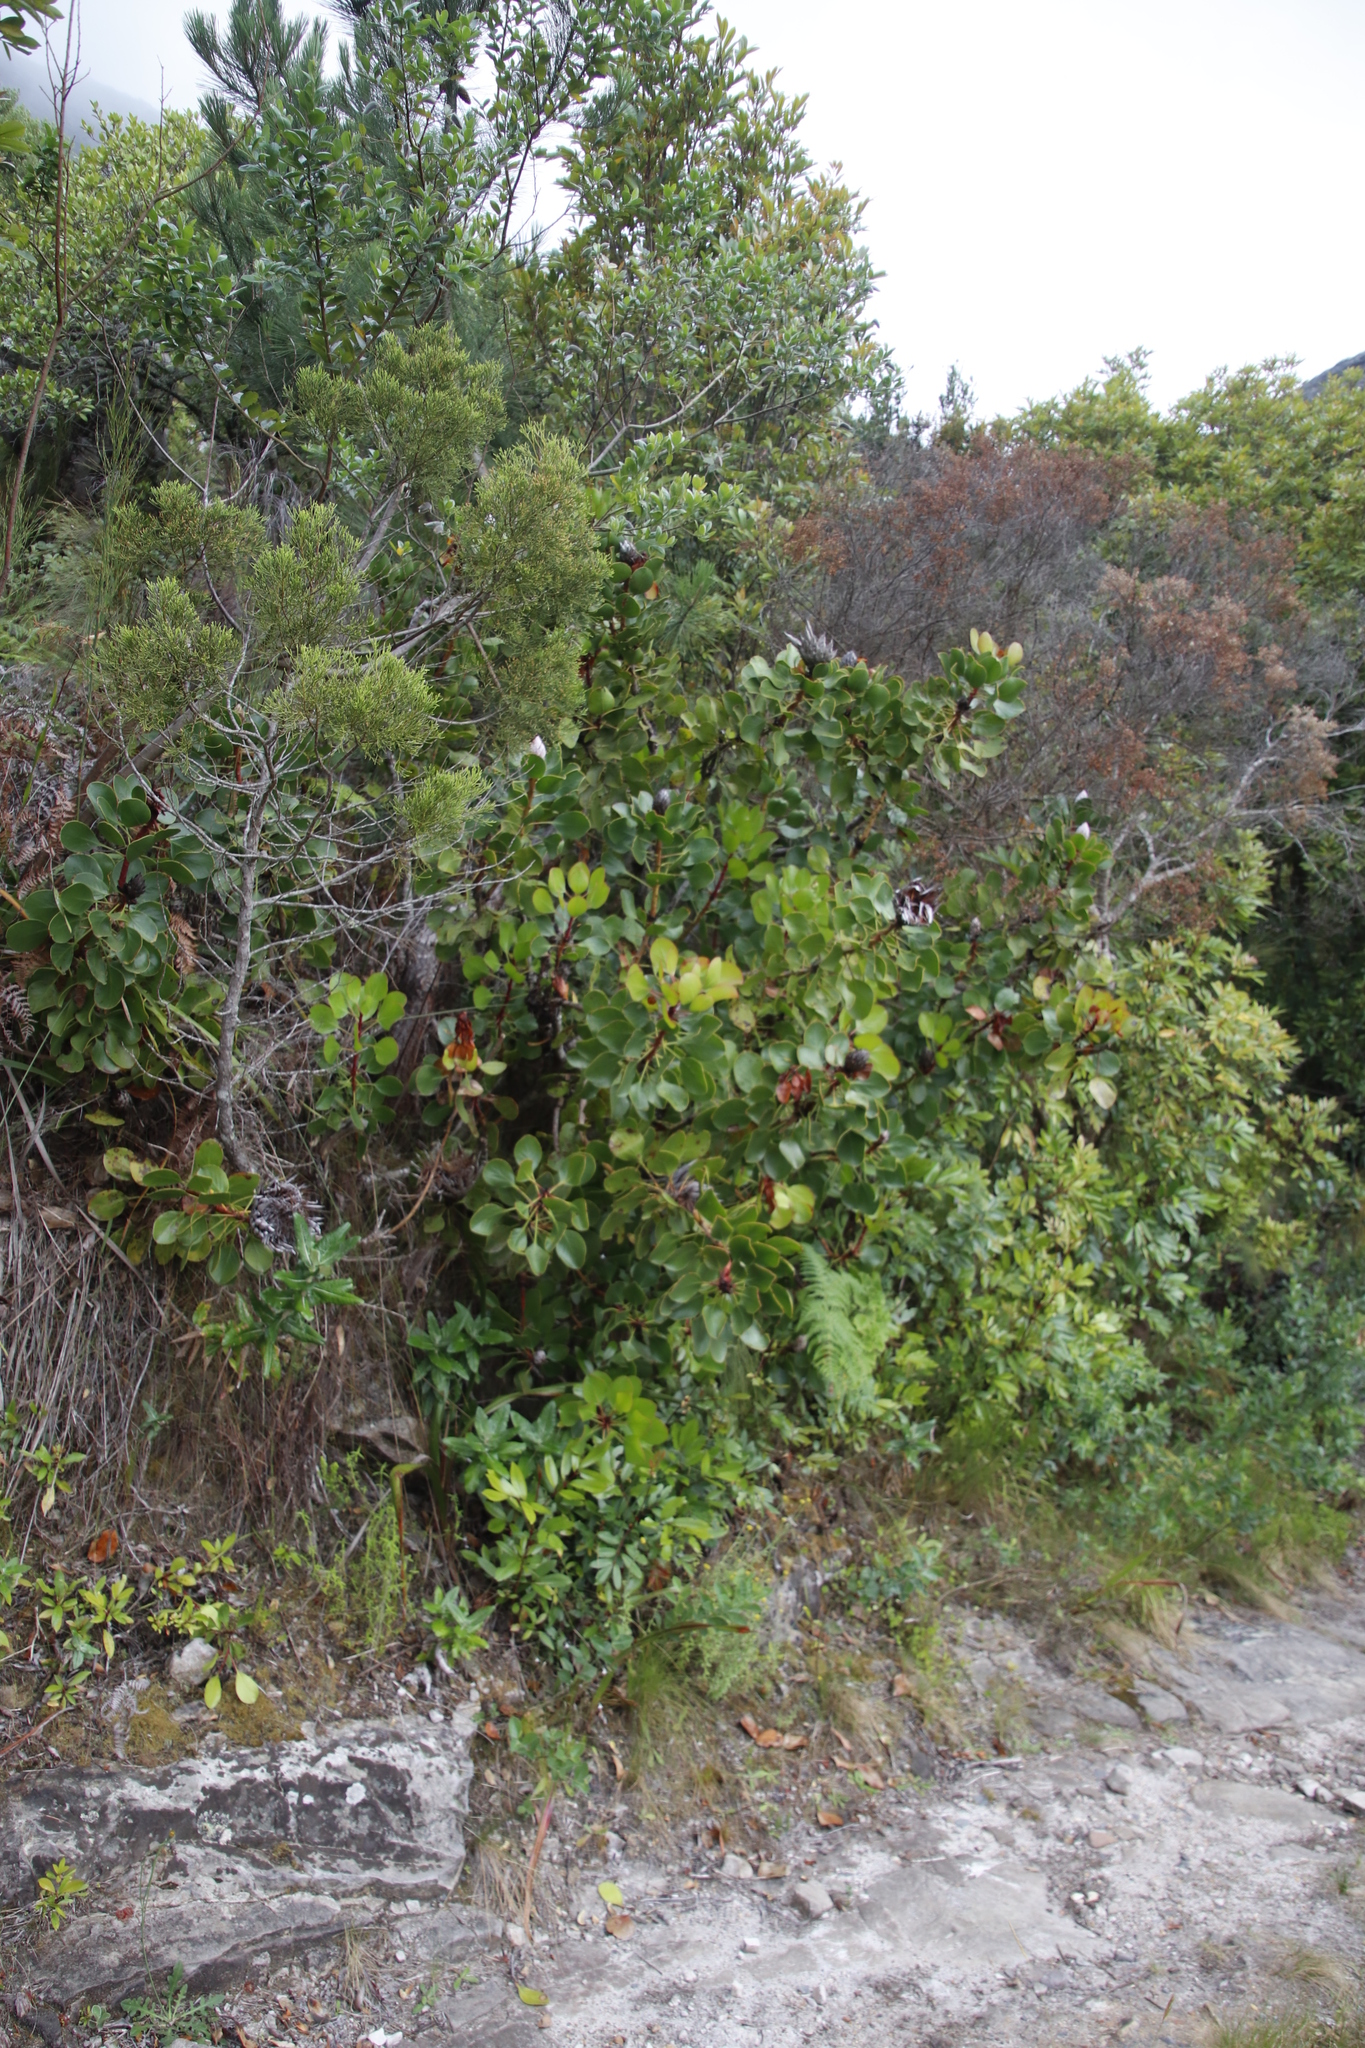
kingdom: Plantae
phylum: Tracheophyta
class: Magnoliopsida
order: Proteales
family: Proteaceae
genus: Protea
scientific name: Protea cynaroides
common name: King protea
